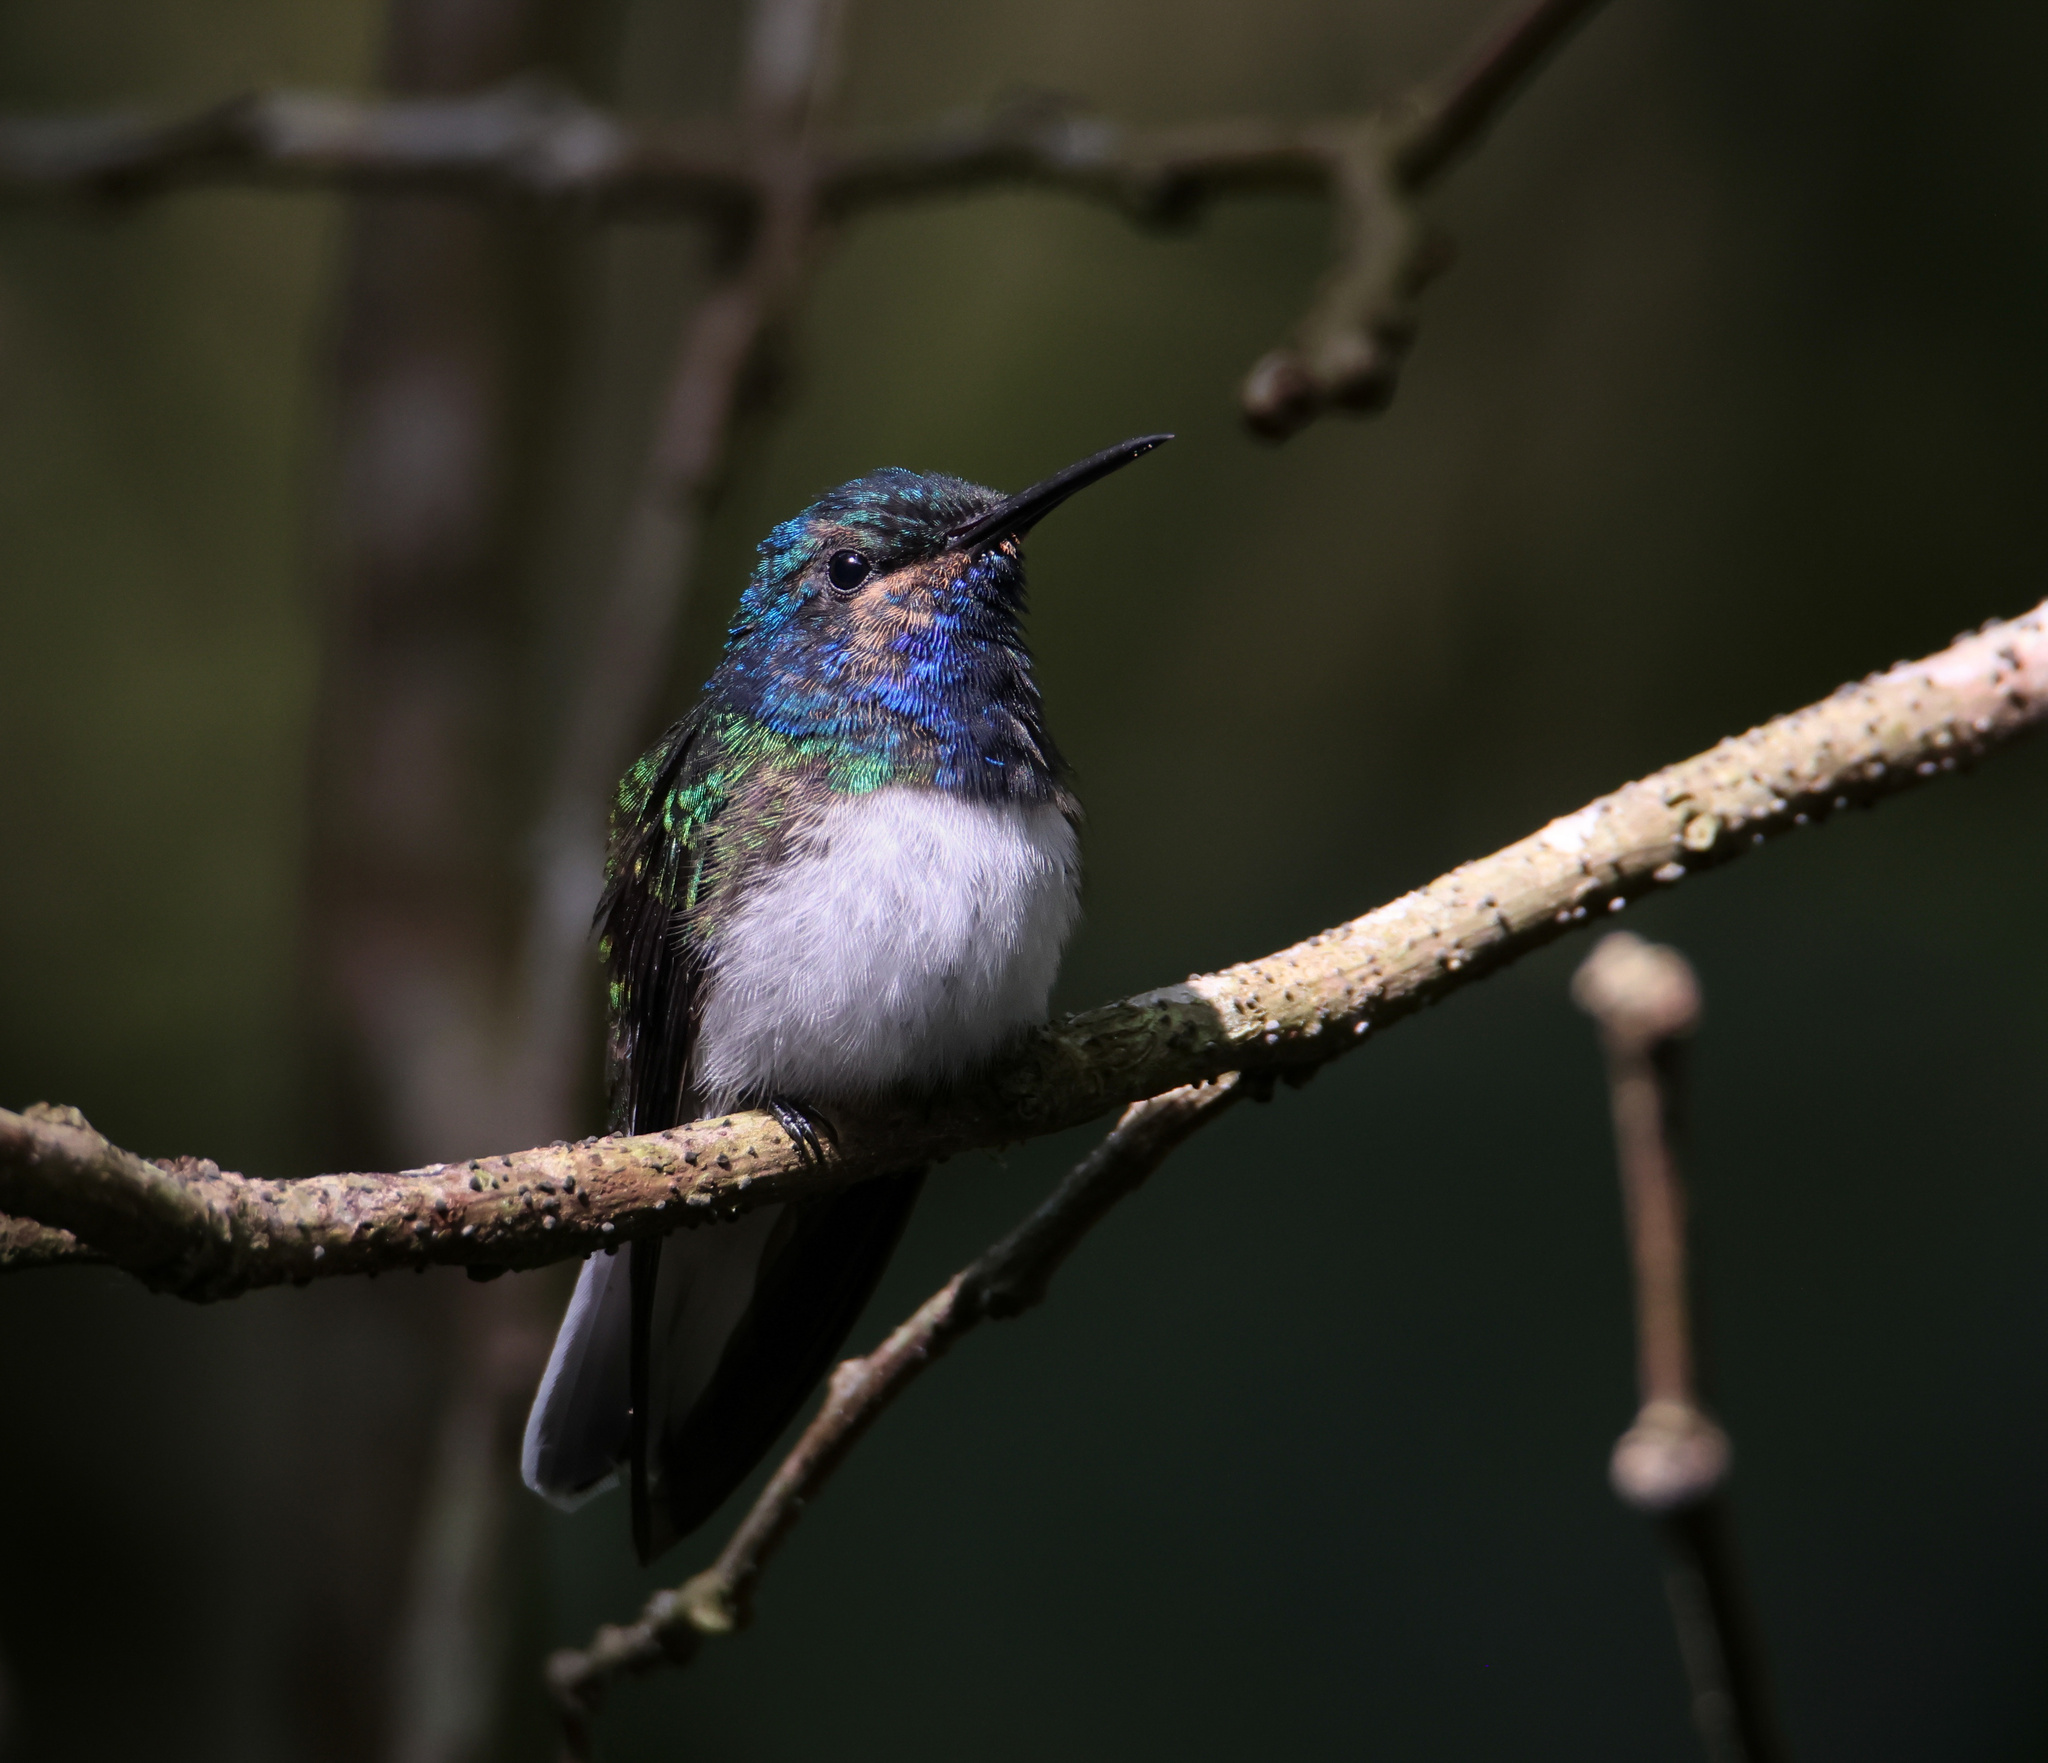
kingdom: Animalia
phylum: Chordata
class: Aves
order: Apodiformes
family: Trochilidae
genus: Florisuga
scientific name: Florisuga mellivora
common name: White-necked jacobin
